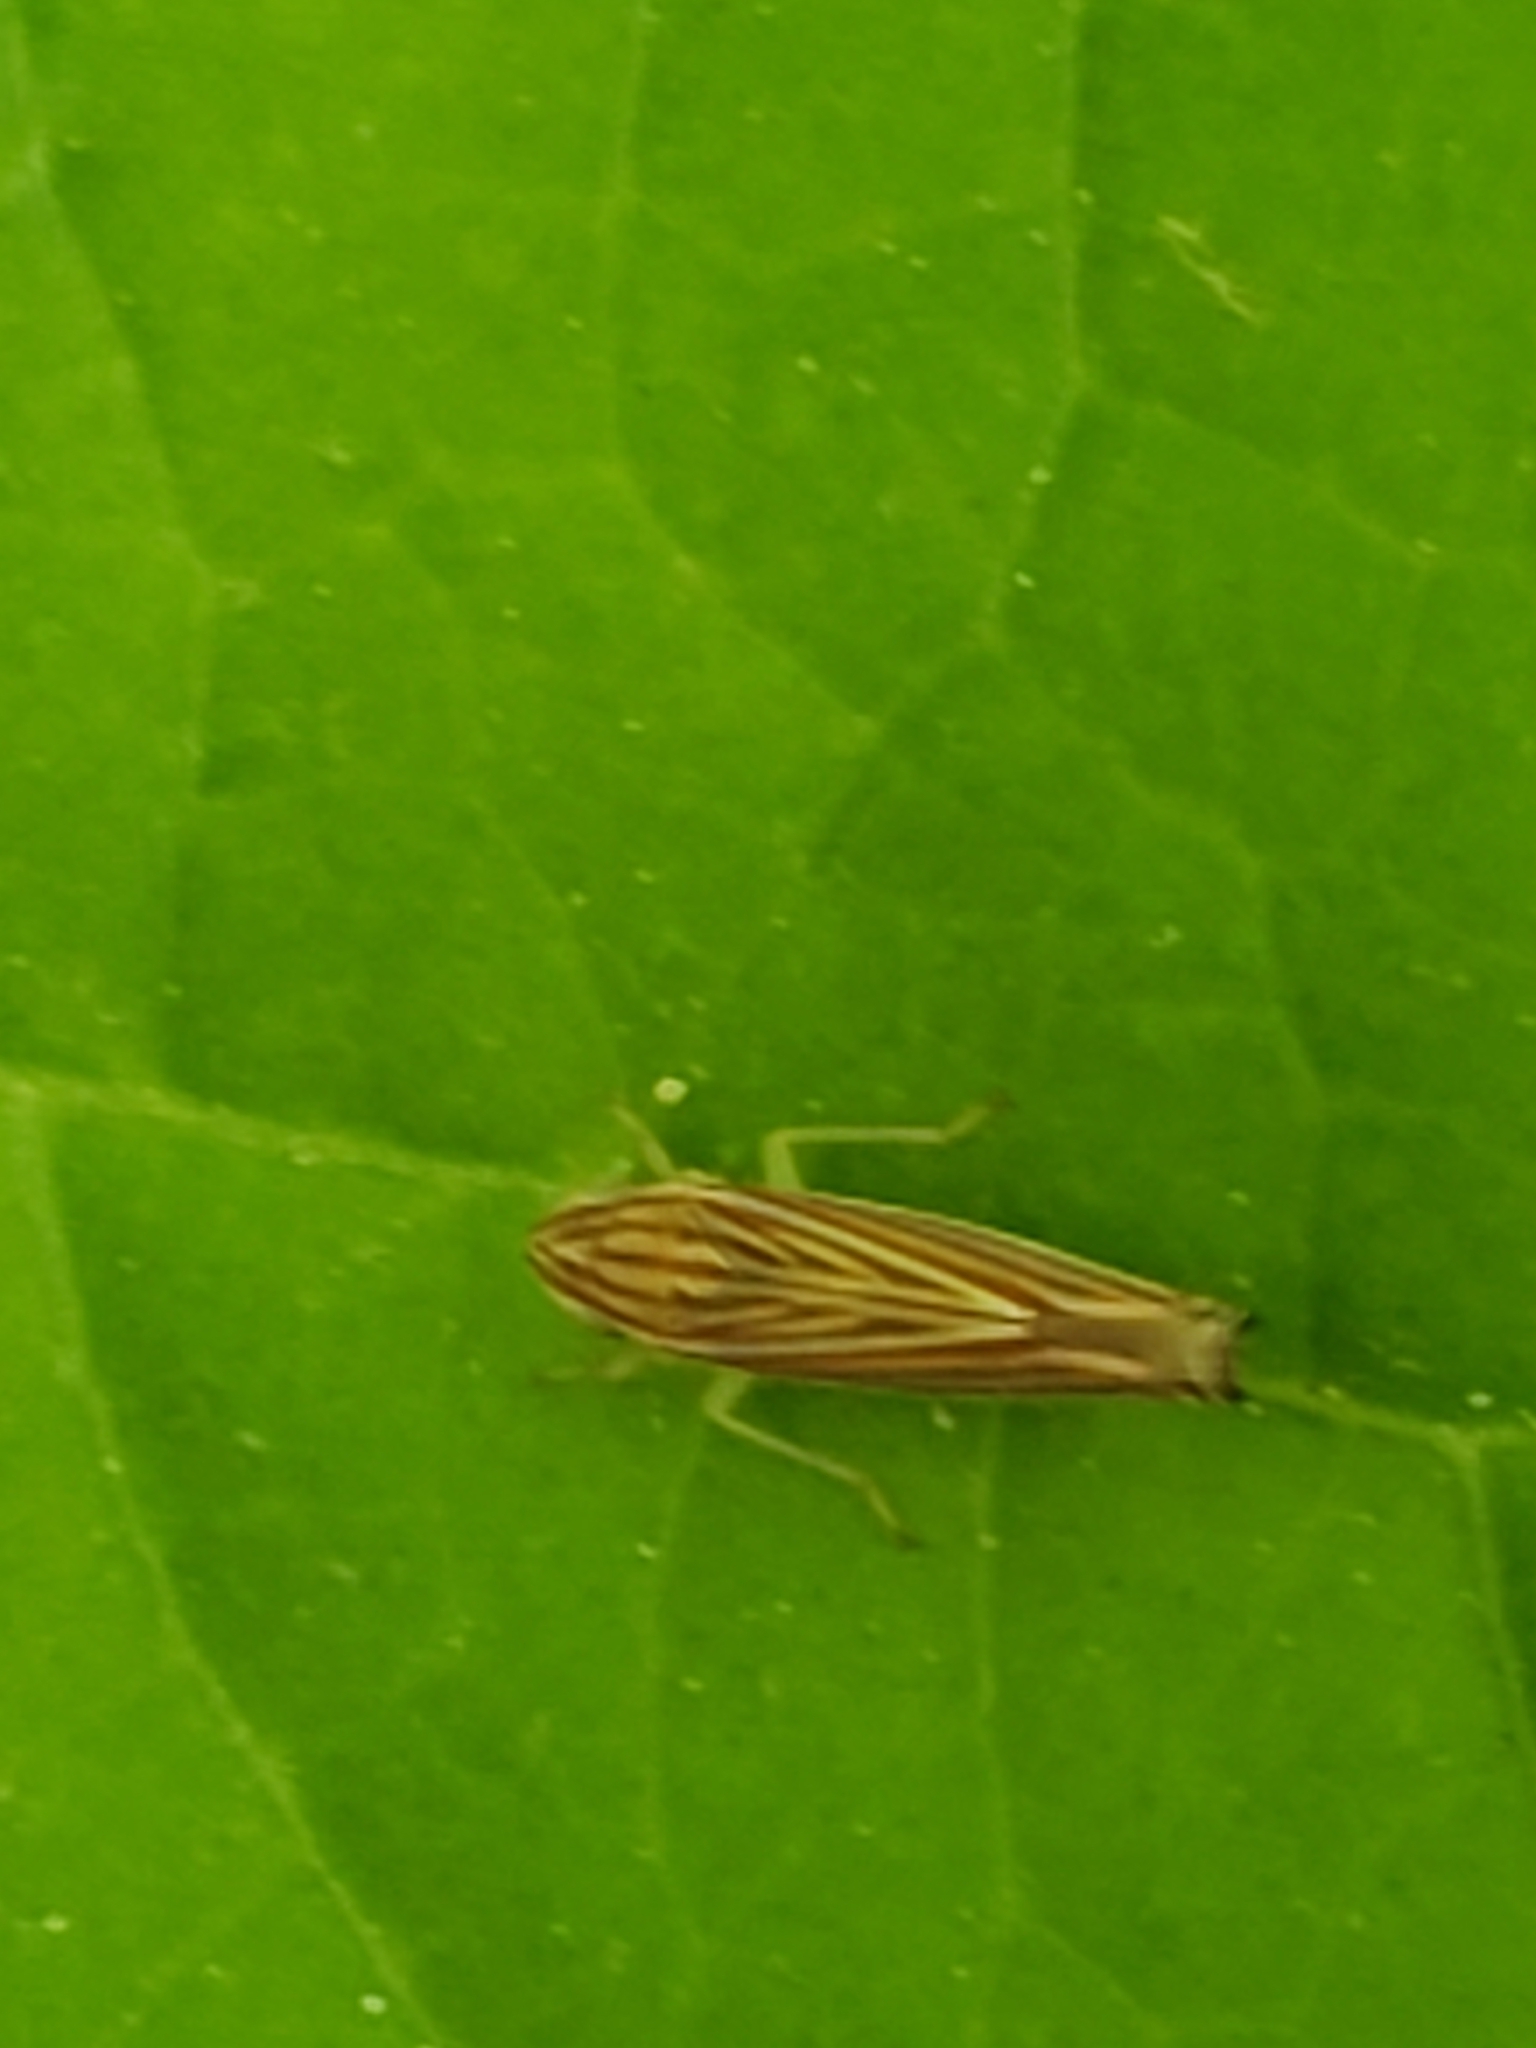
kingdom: Animalia
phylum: Arthropoda
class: Insecta
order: Hemiptera
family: Cicadellidae
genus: Sibovia
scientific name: Sibovia occatoria
